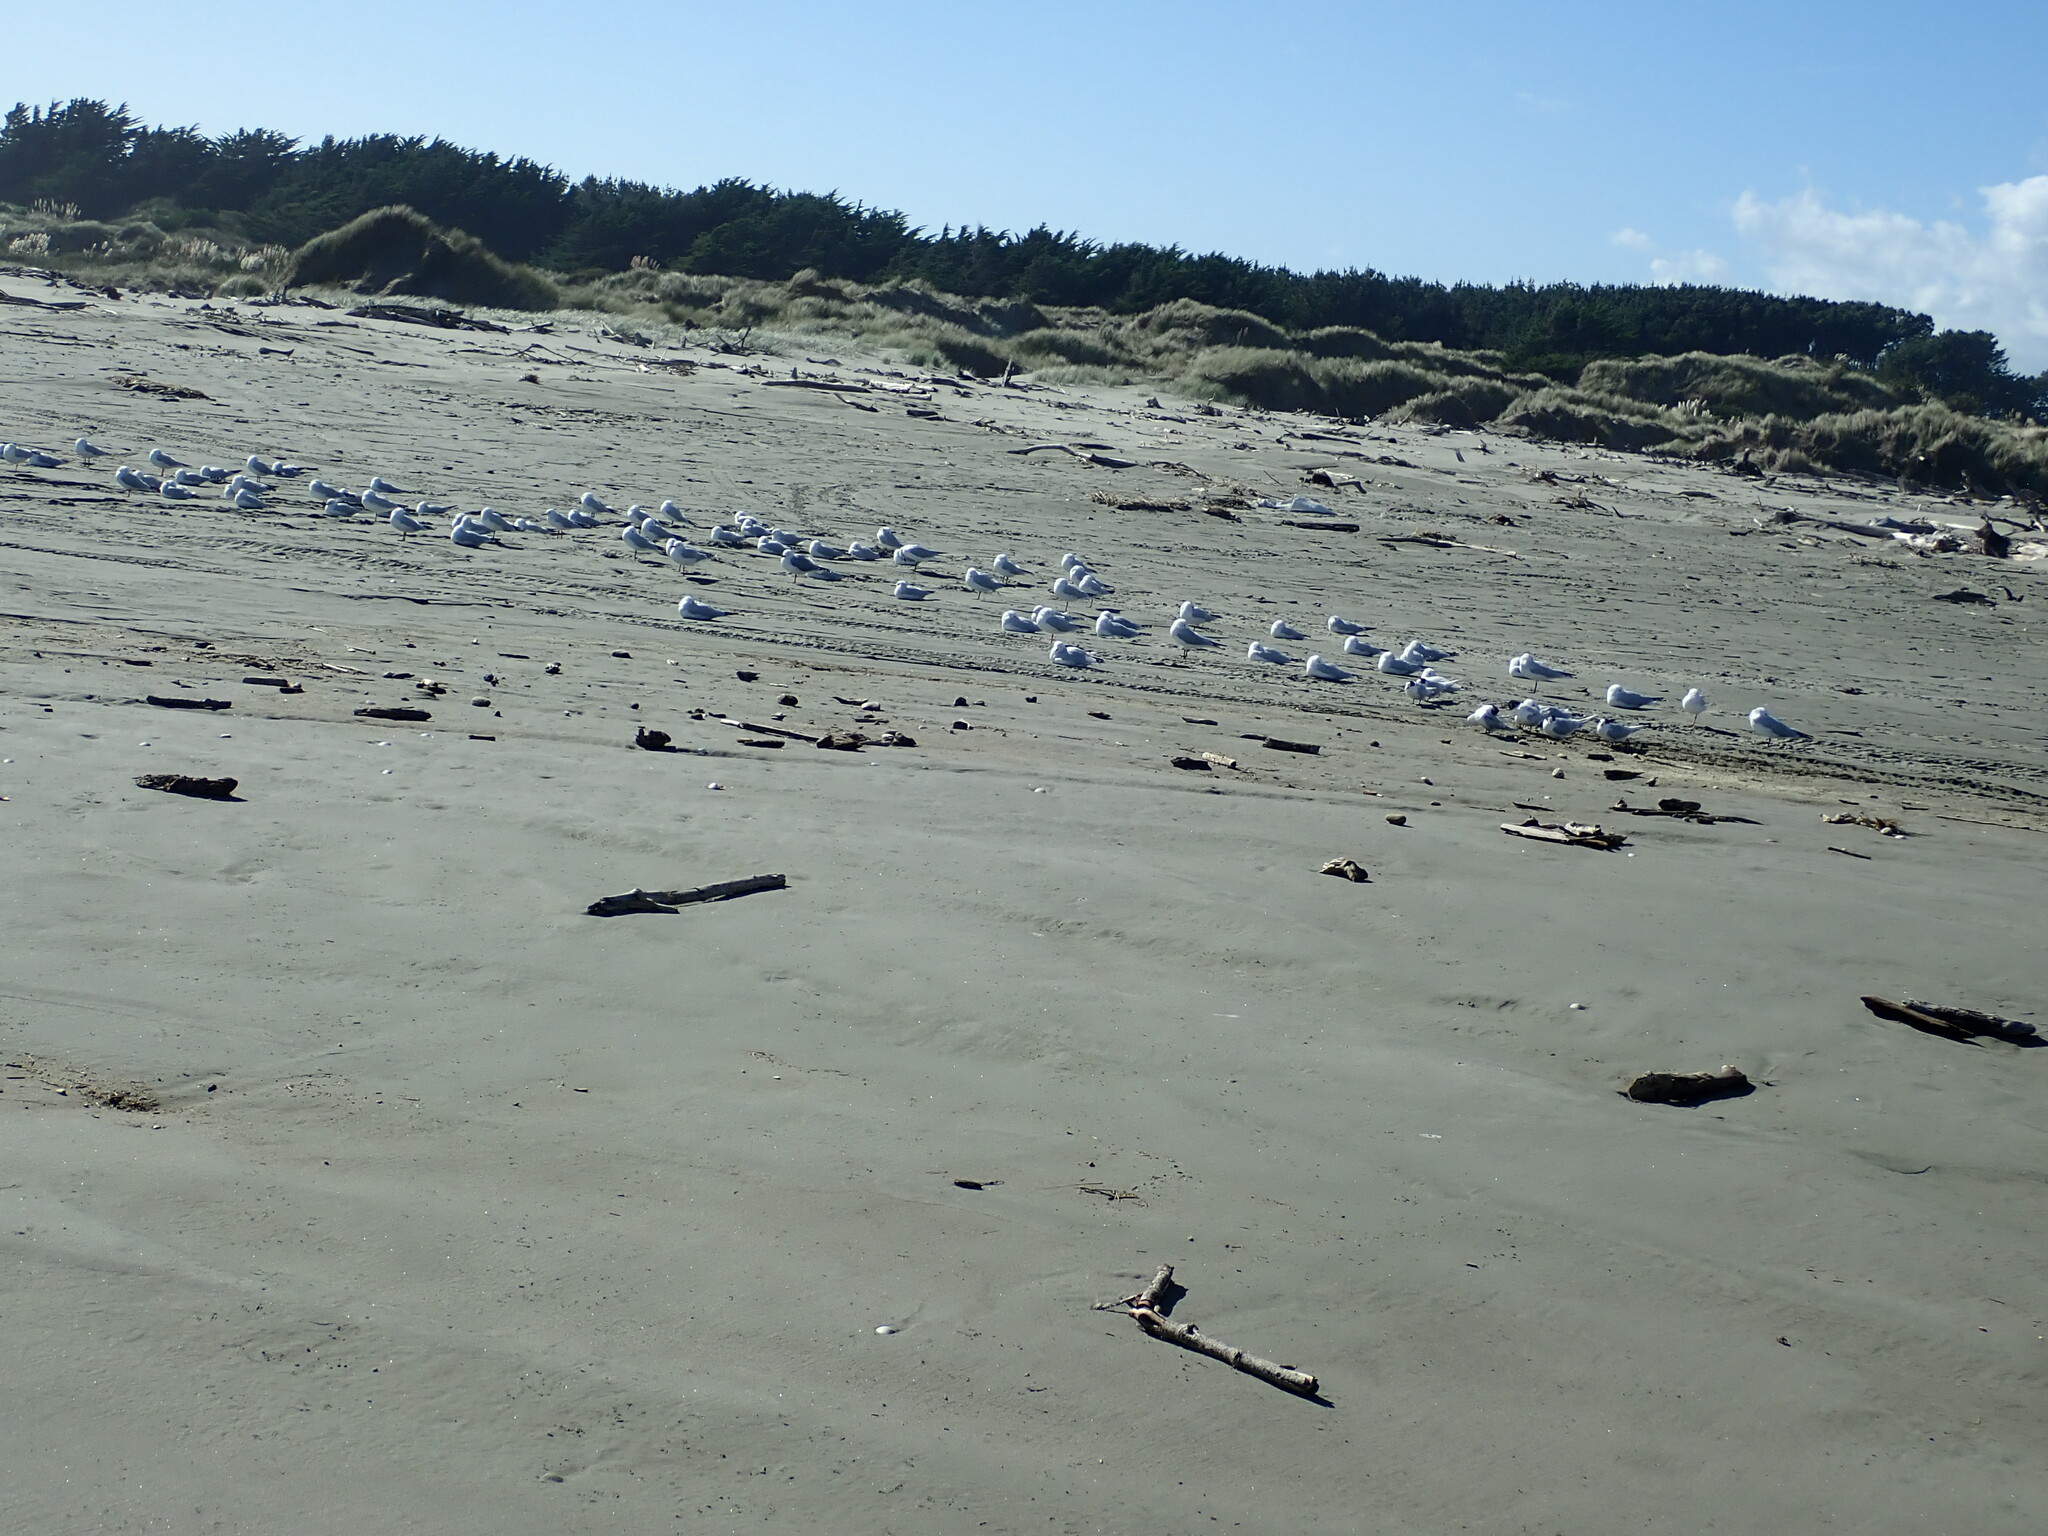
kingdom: Animalia
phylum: Chordata
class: Aves
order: Charadriiformes
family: Laridae
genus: Sterna
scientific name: Sterna striata
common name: White-fronted tern
